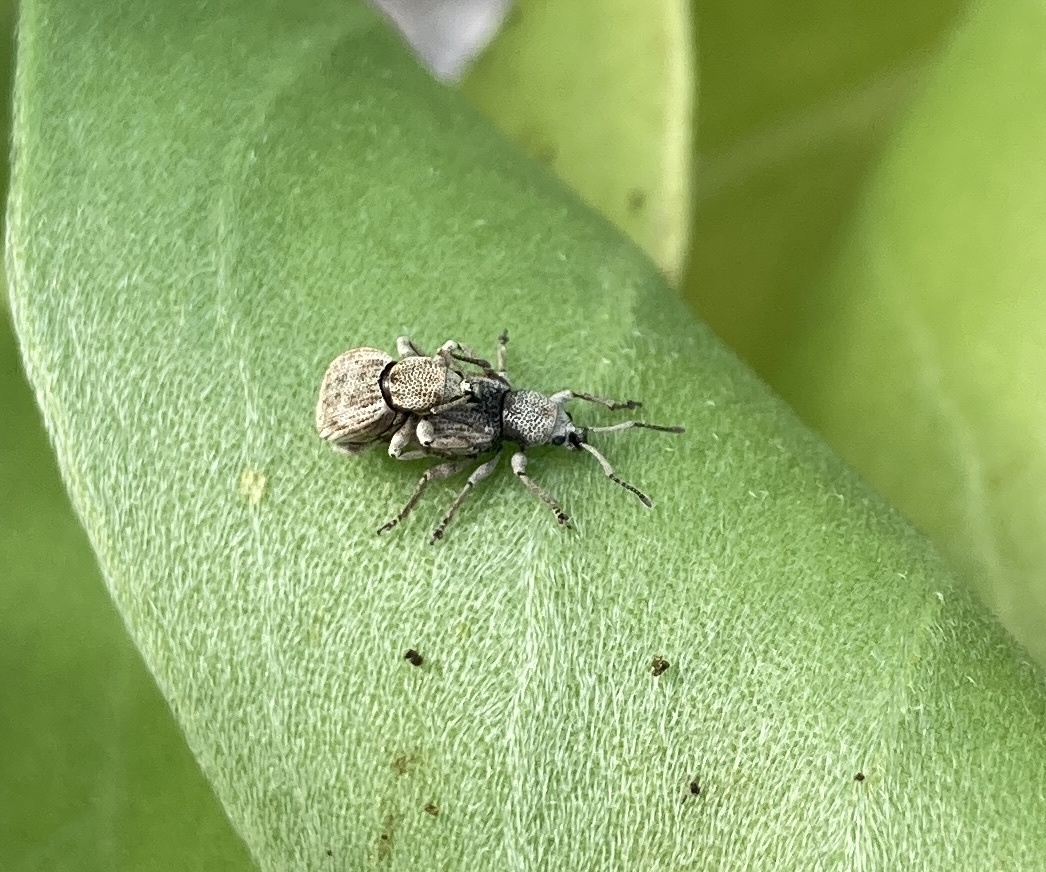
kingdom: Animalia
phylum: Arthropoda
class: Insecta
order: Coleoptera
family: Curculionidae
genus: Platysimus
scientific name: Platysimus insularis
